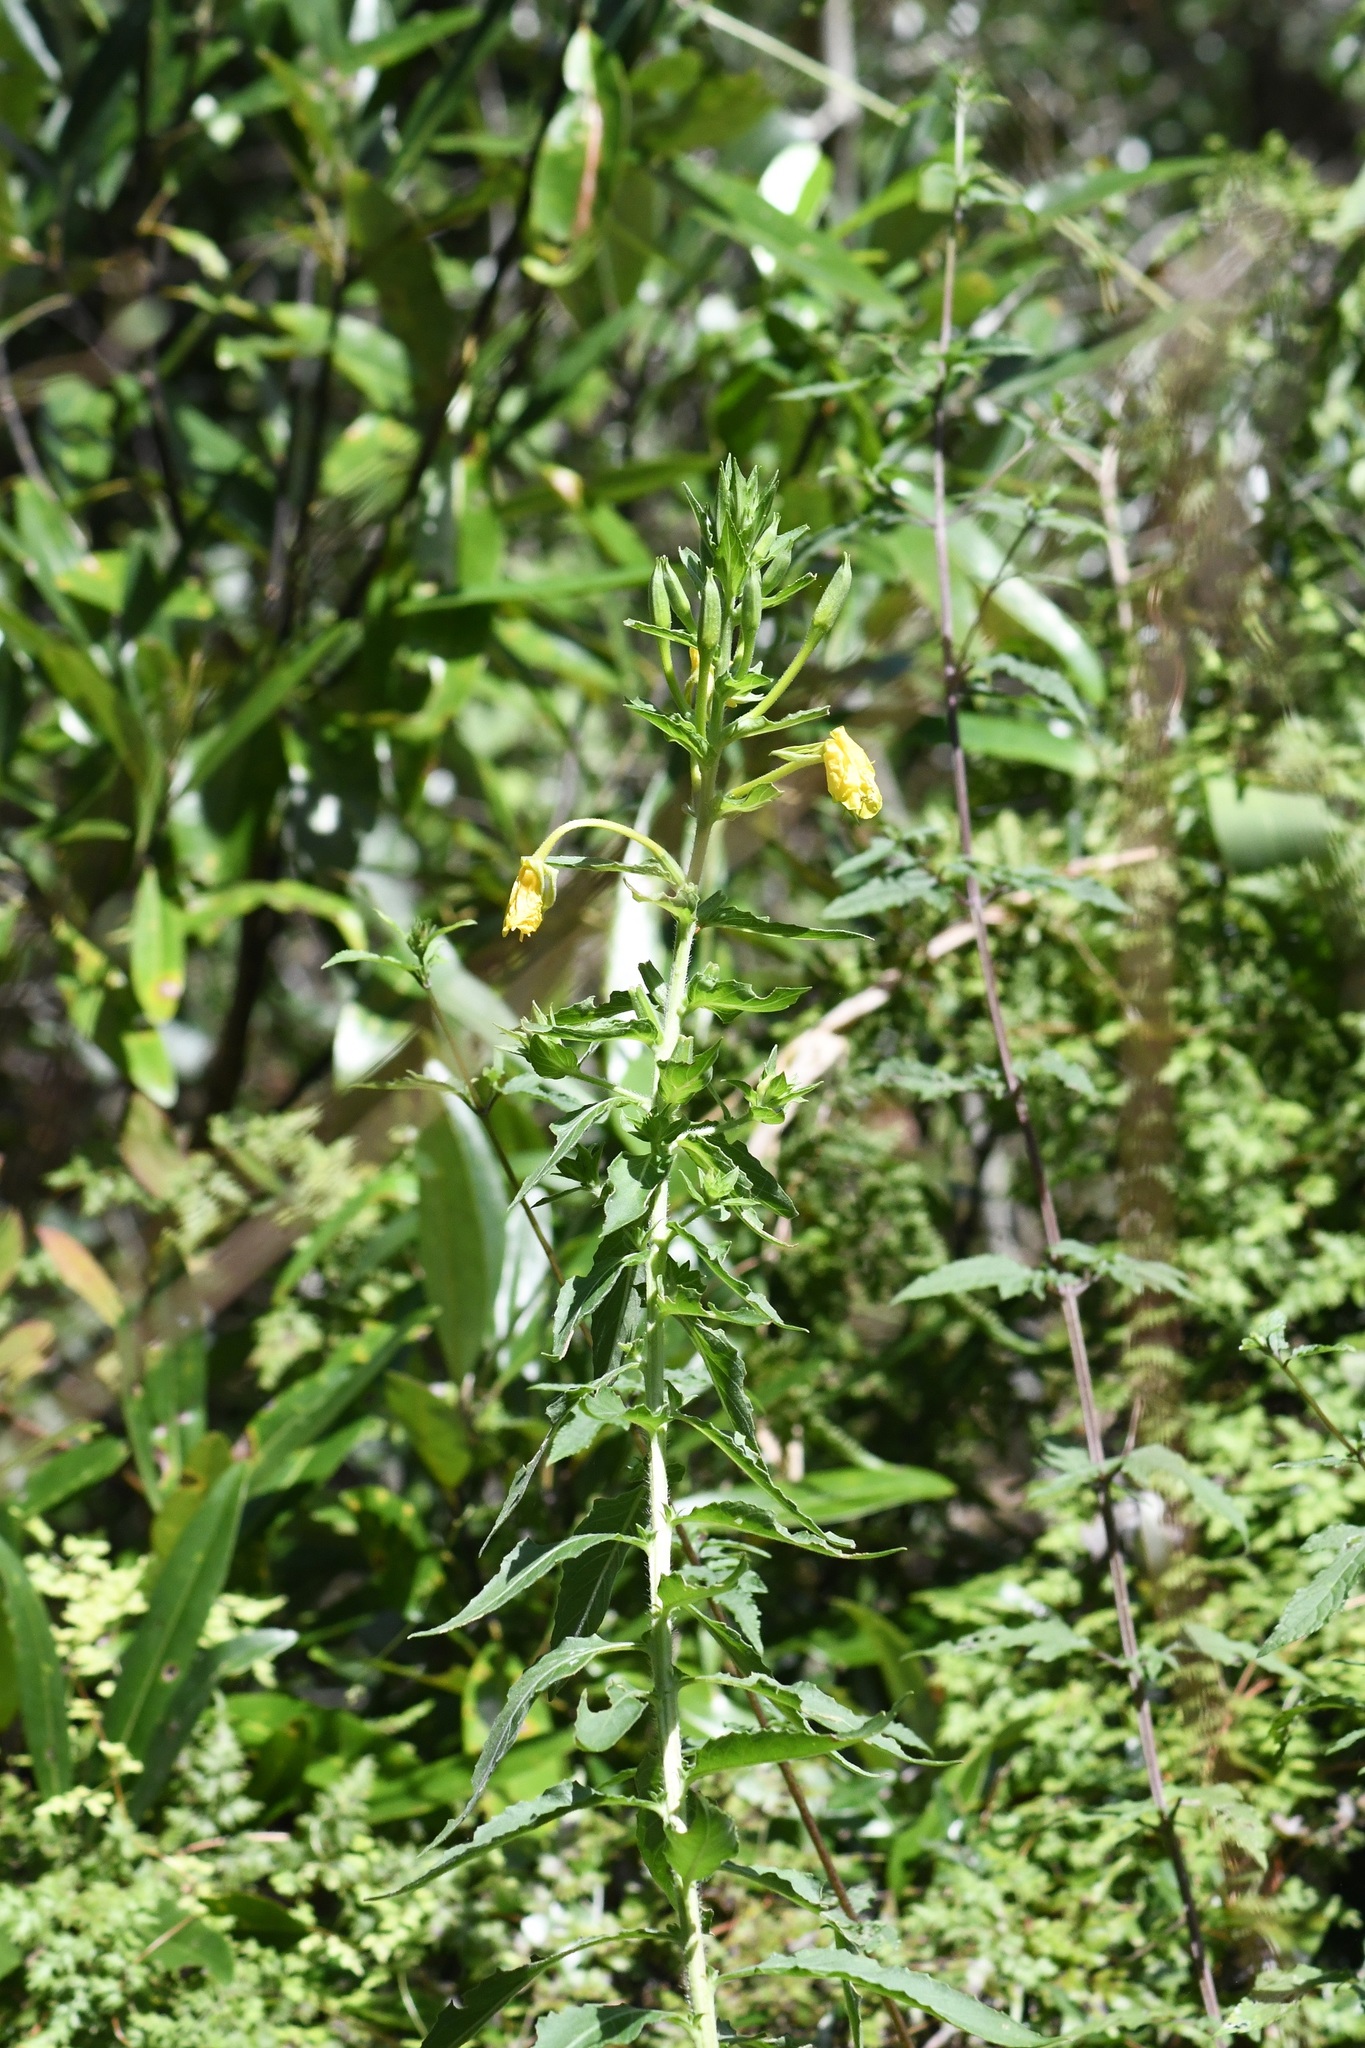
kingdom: Plantae
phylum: Tracheophyta
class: Magnoliopsida
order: Myrtales
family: Onagraceae
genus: Oenothera
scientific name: Oenothera biennis
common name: Common evening-primrose
